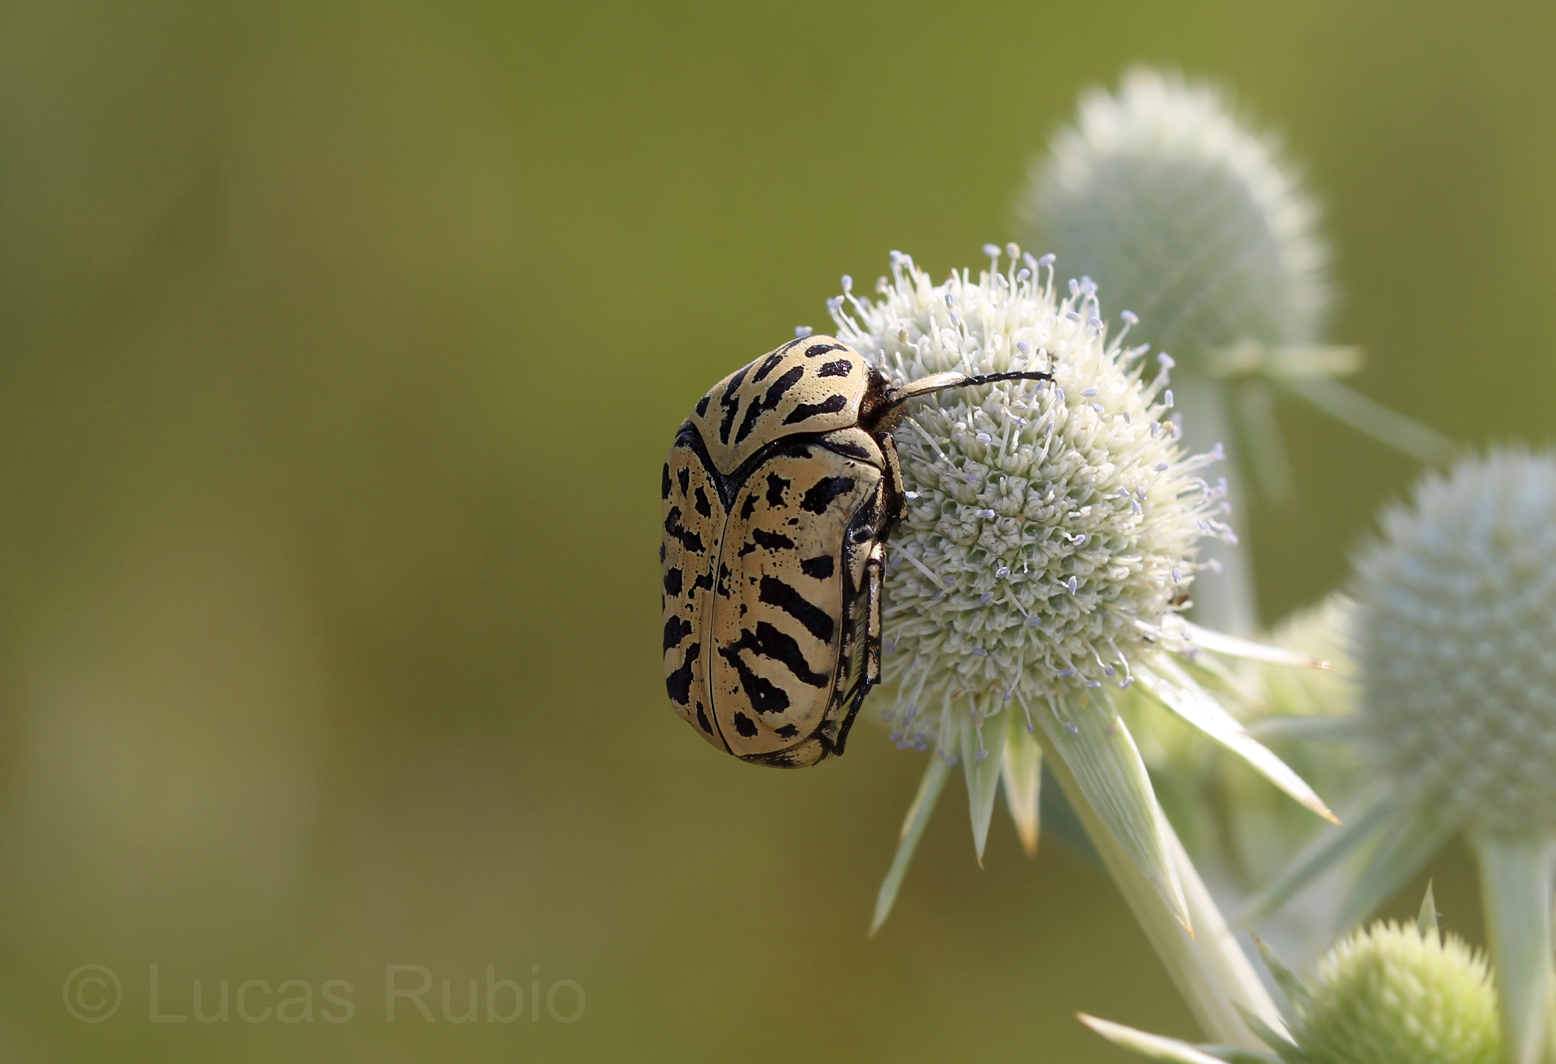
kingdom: Animalia
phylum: Arthropoda
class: Insecta
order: Coleoptera
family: Scarabaeidae
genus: Marmarina
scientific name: Marmarina tigrina
